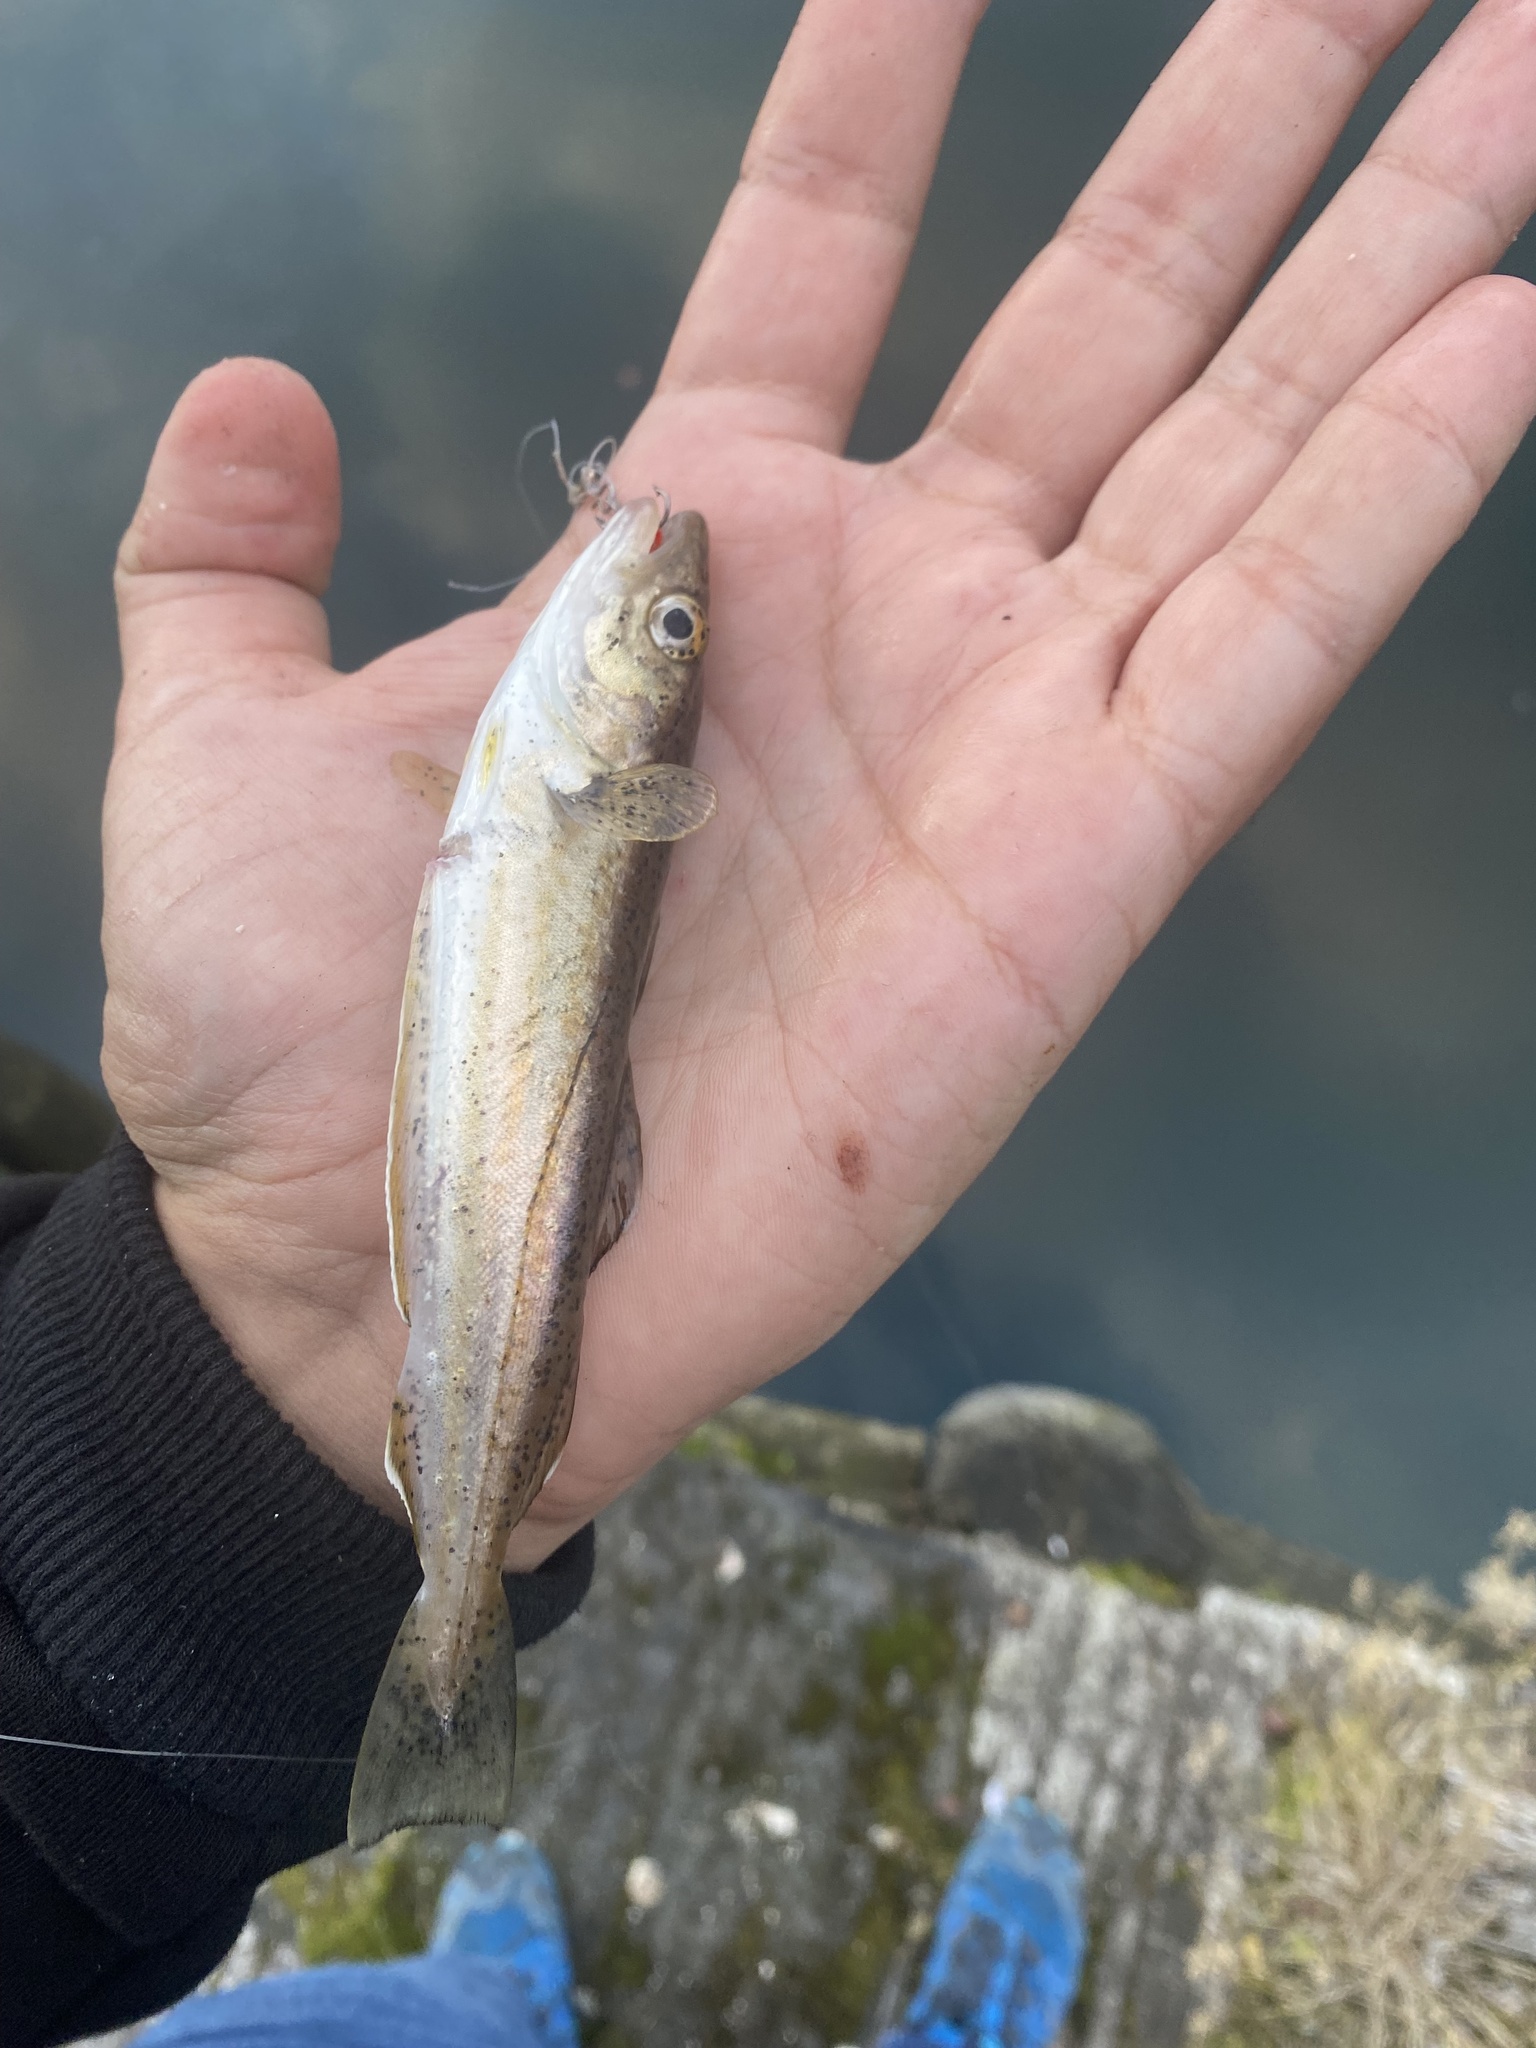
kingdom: Animalia
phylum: Chordata
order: Gadiformes
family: Gadidae
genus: Merlangius
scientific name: Merlangius merlangus
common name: Whiting
